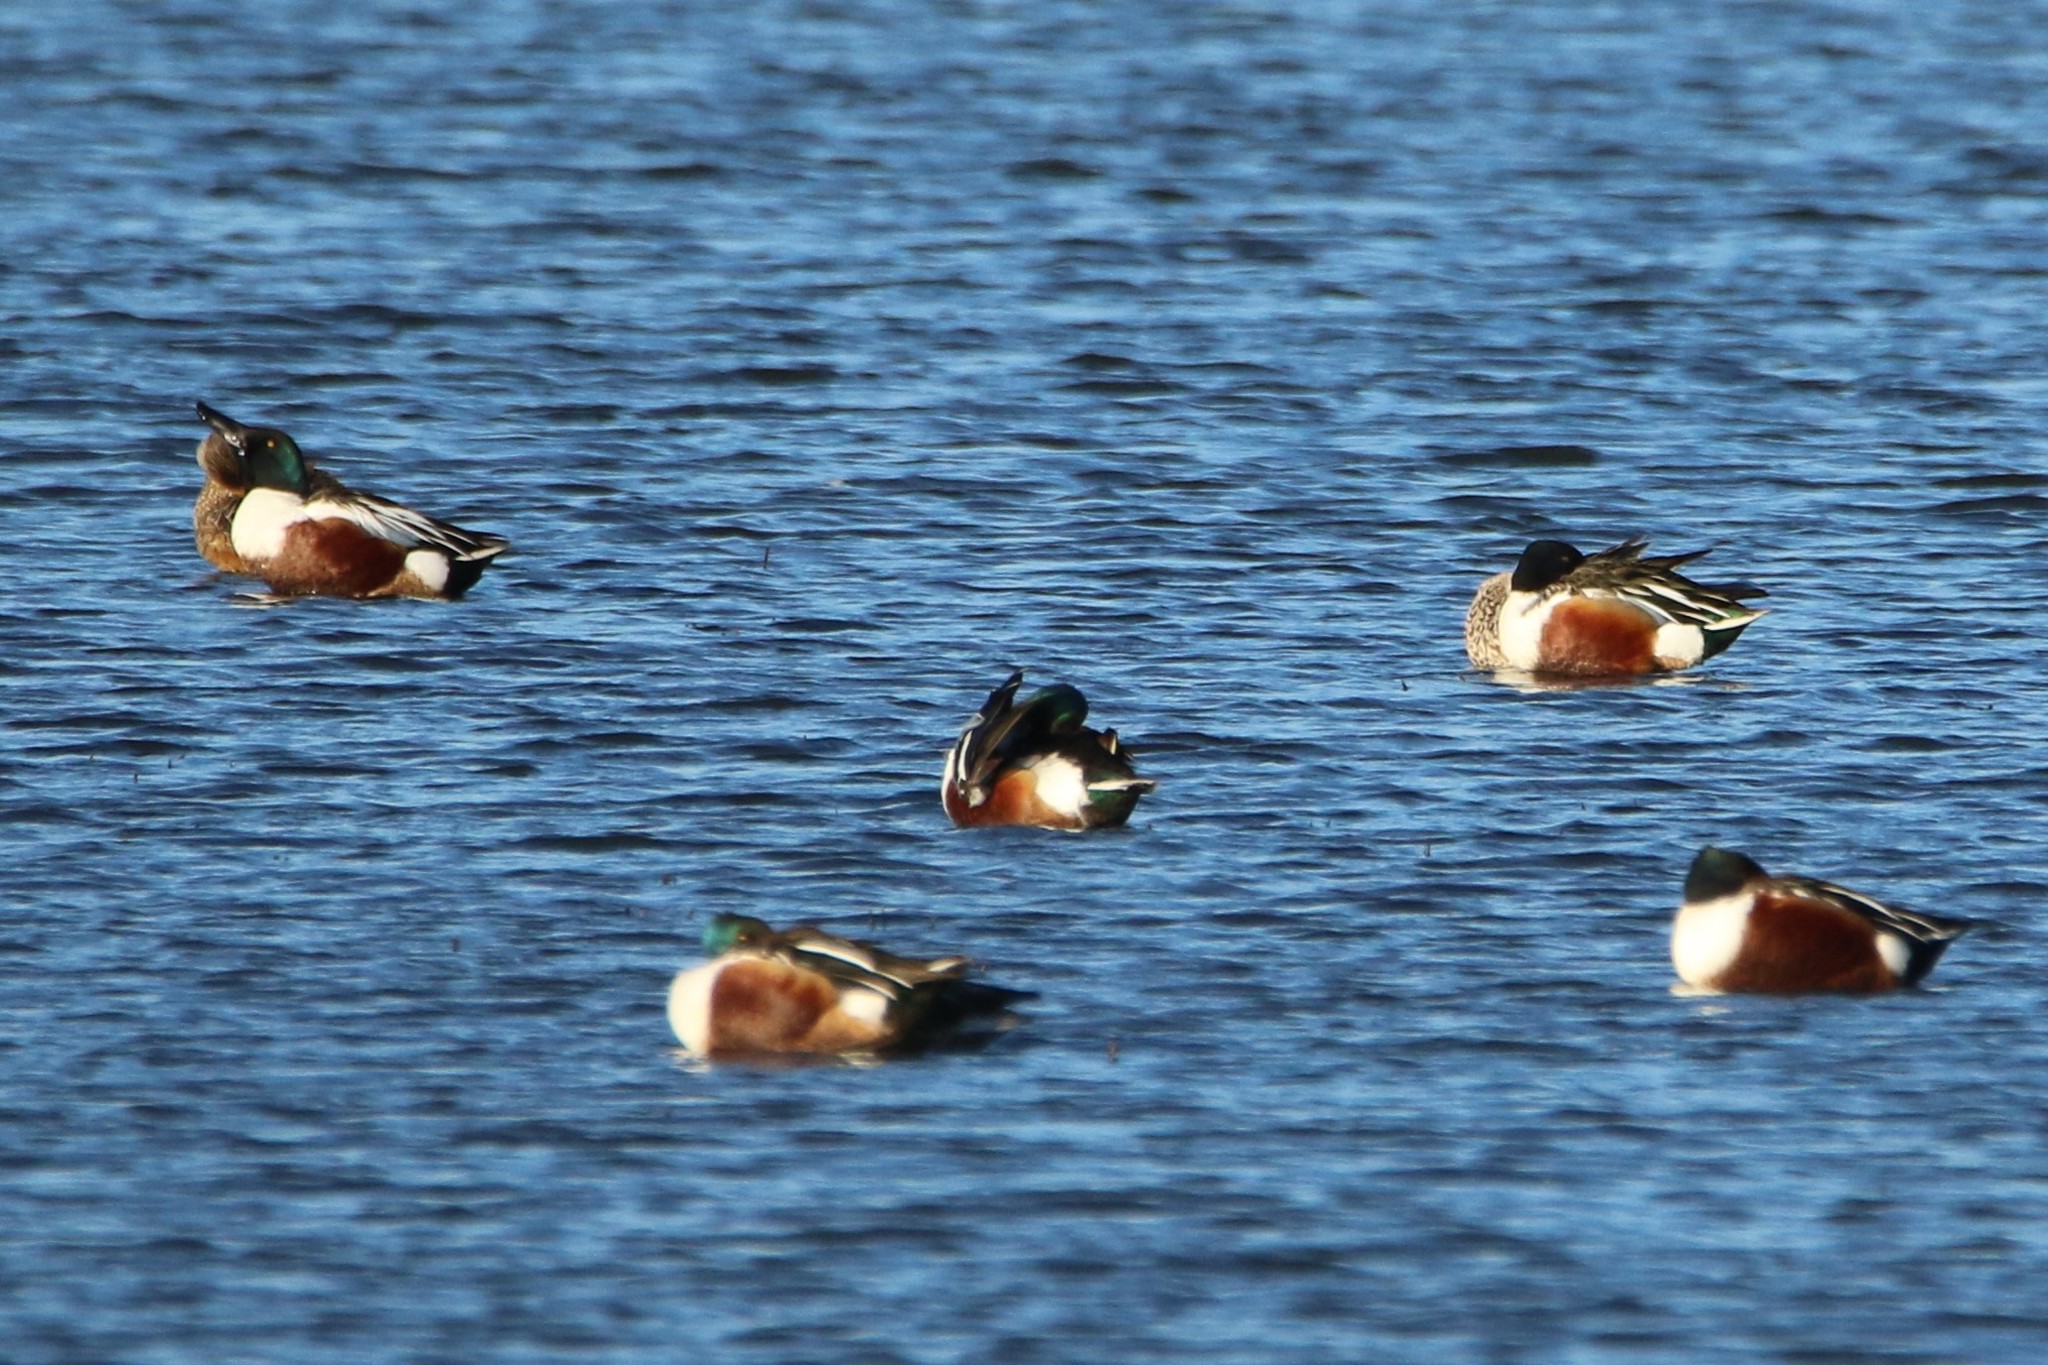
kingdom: Animalia
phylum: Chordata
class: Aves
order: Anseriformes
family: Anatidae
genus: Spatula
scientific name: Spatula clypeata
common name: Northern shoveler
